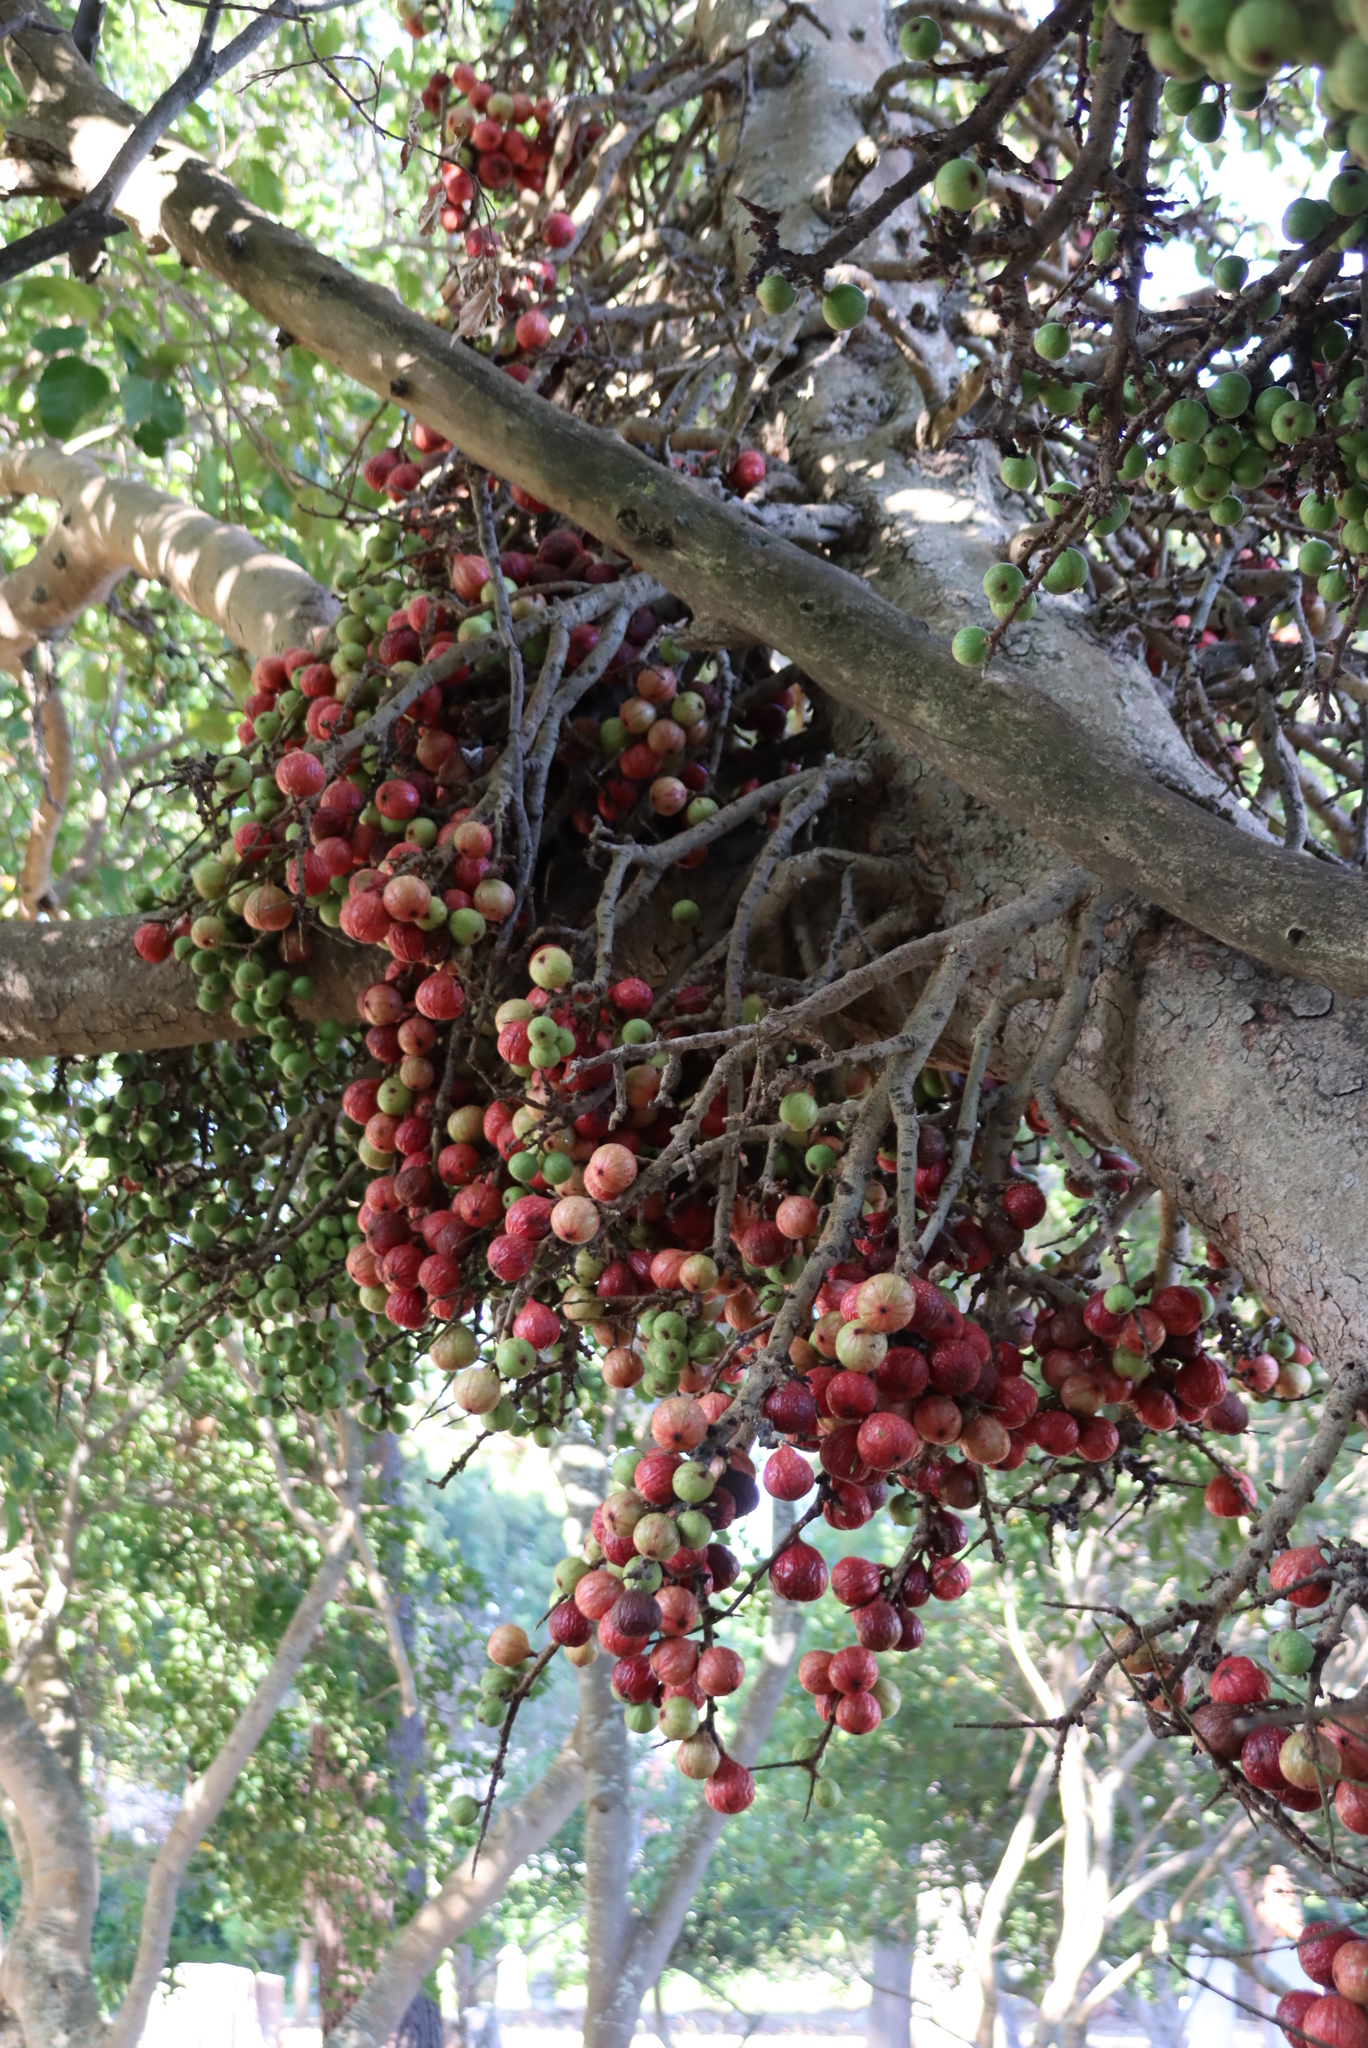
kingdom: Plantae
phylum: Tracheophyta
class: Magnoliopsida
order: Rosales
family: Moraceae
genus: Ficus
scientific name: Ficus sur
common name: Cape fig
